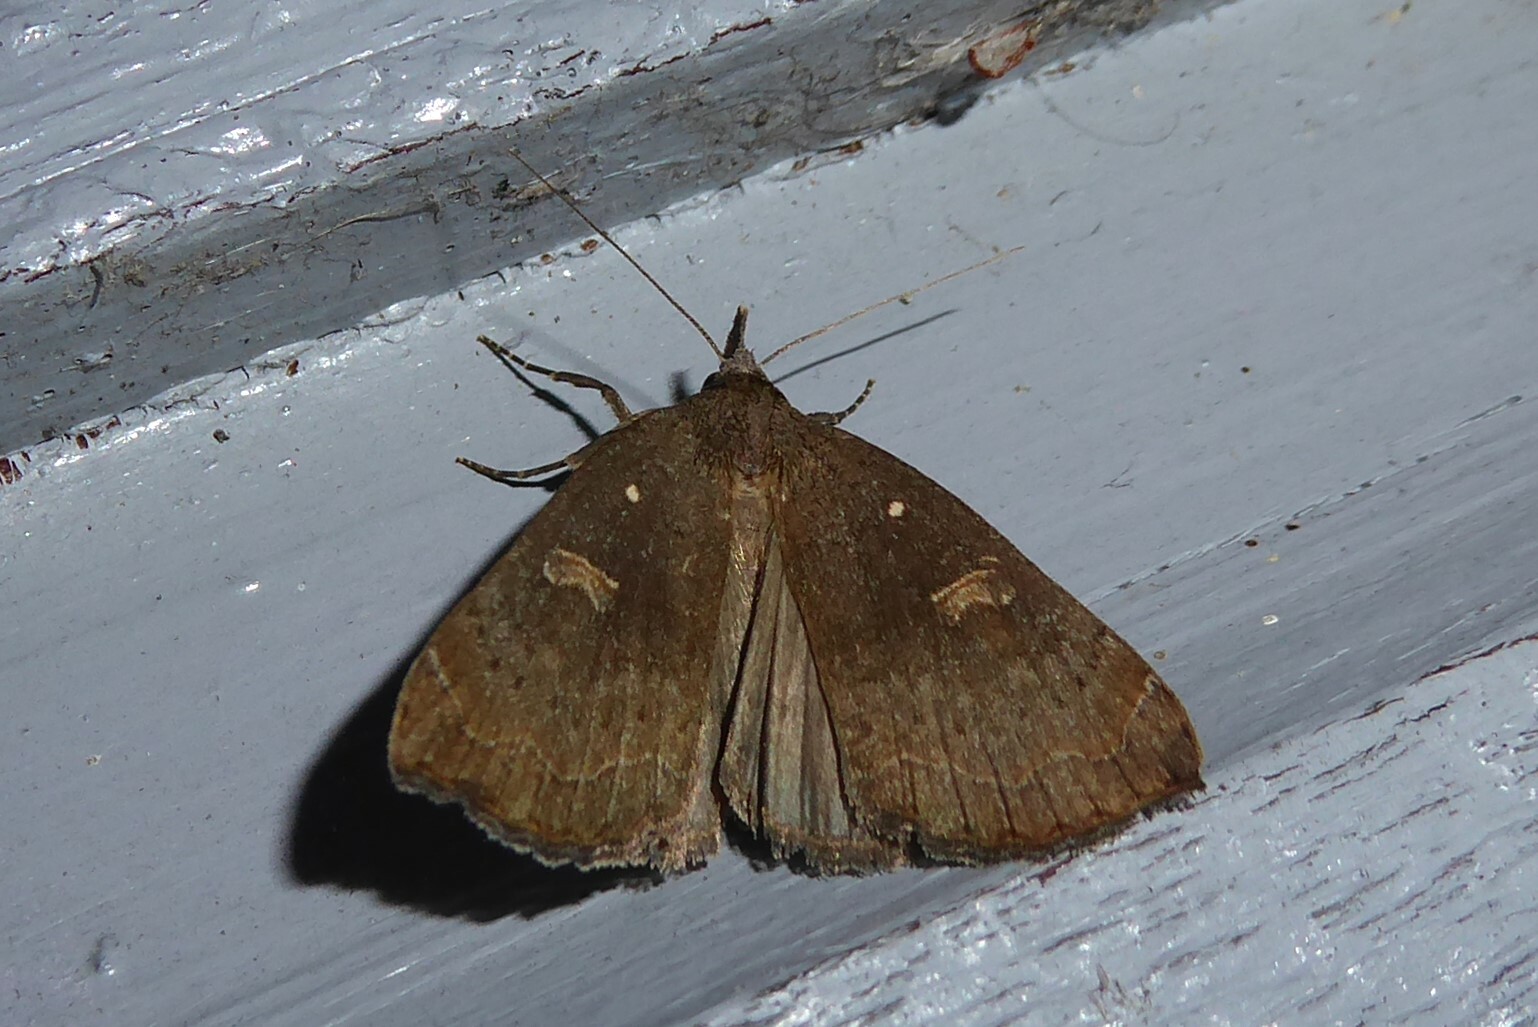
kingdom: Animalia
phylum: Arthropoda
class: Insecta
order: Lepidoptera
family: Erebidae
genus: Rhapsa
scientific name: Rhapsa scotosialis
